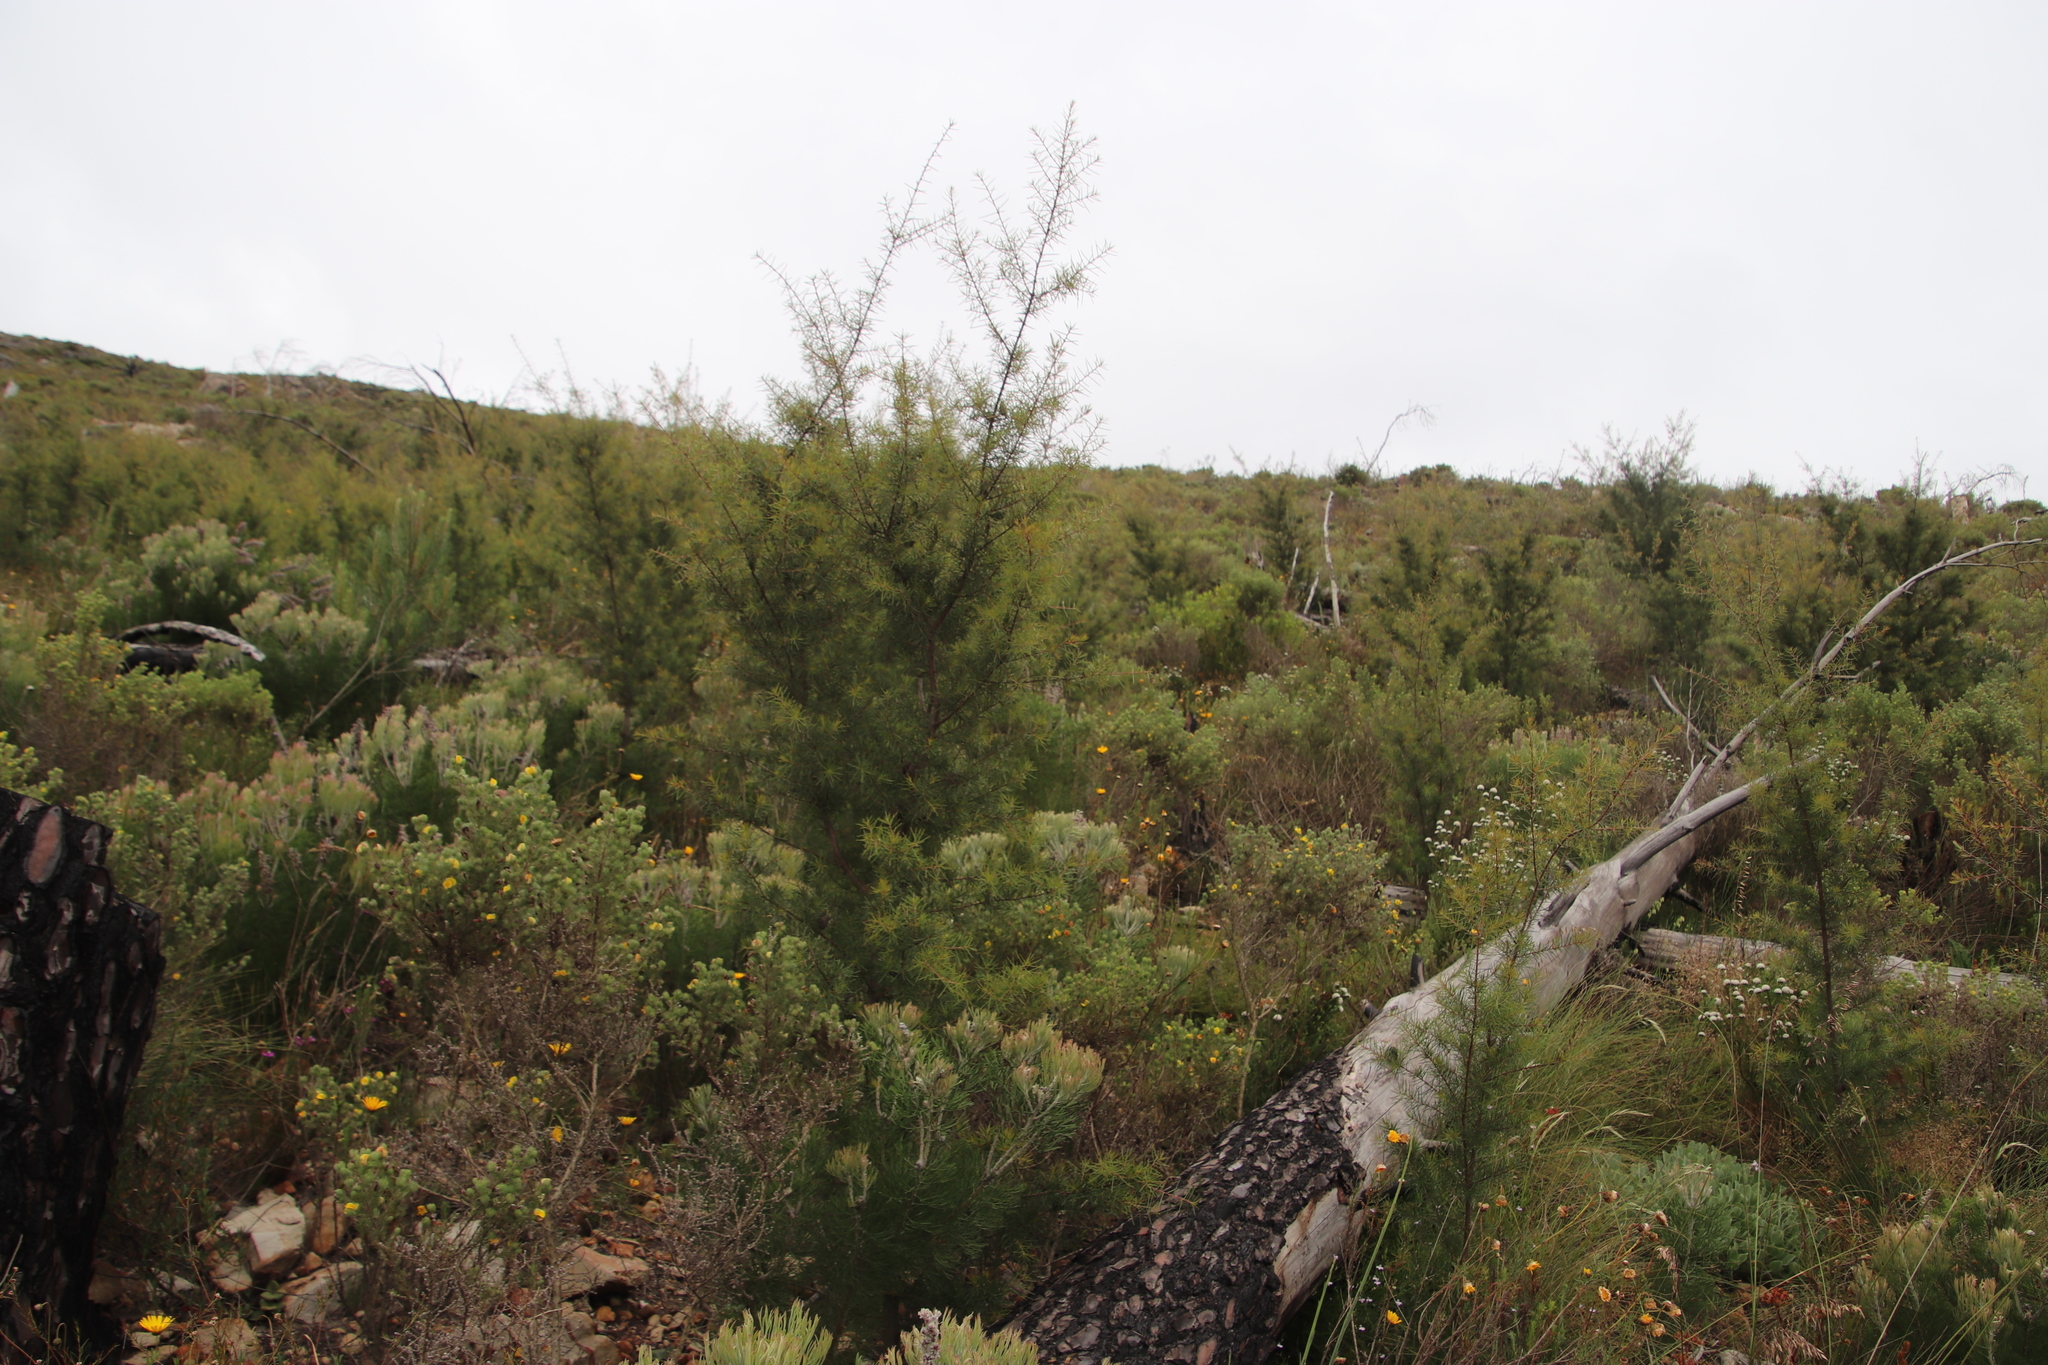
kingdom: Plantae
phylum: Tracheophyta
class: Magnoliopsida
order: Proteales
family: Proteaceae
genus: Hakea
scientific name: Hakea sericea
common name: Needle bush
